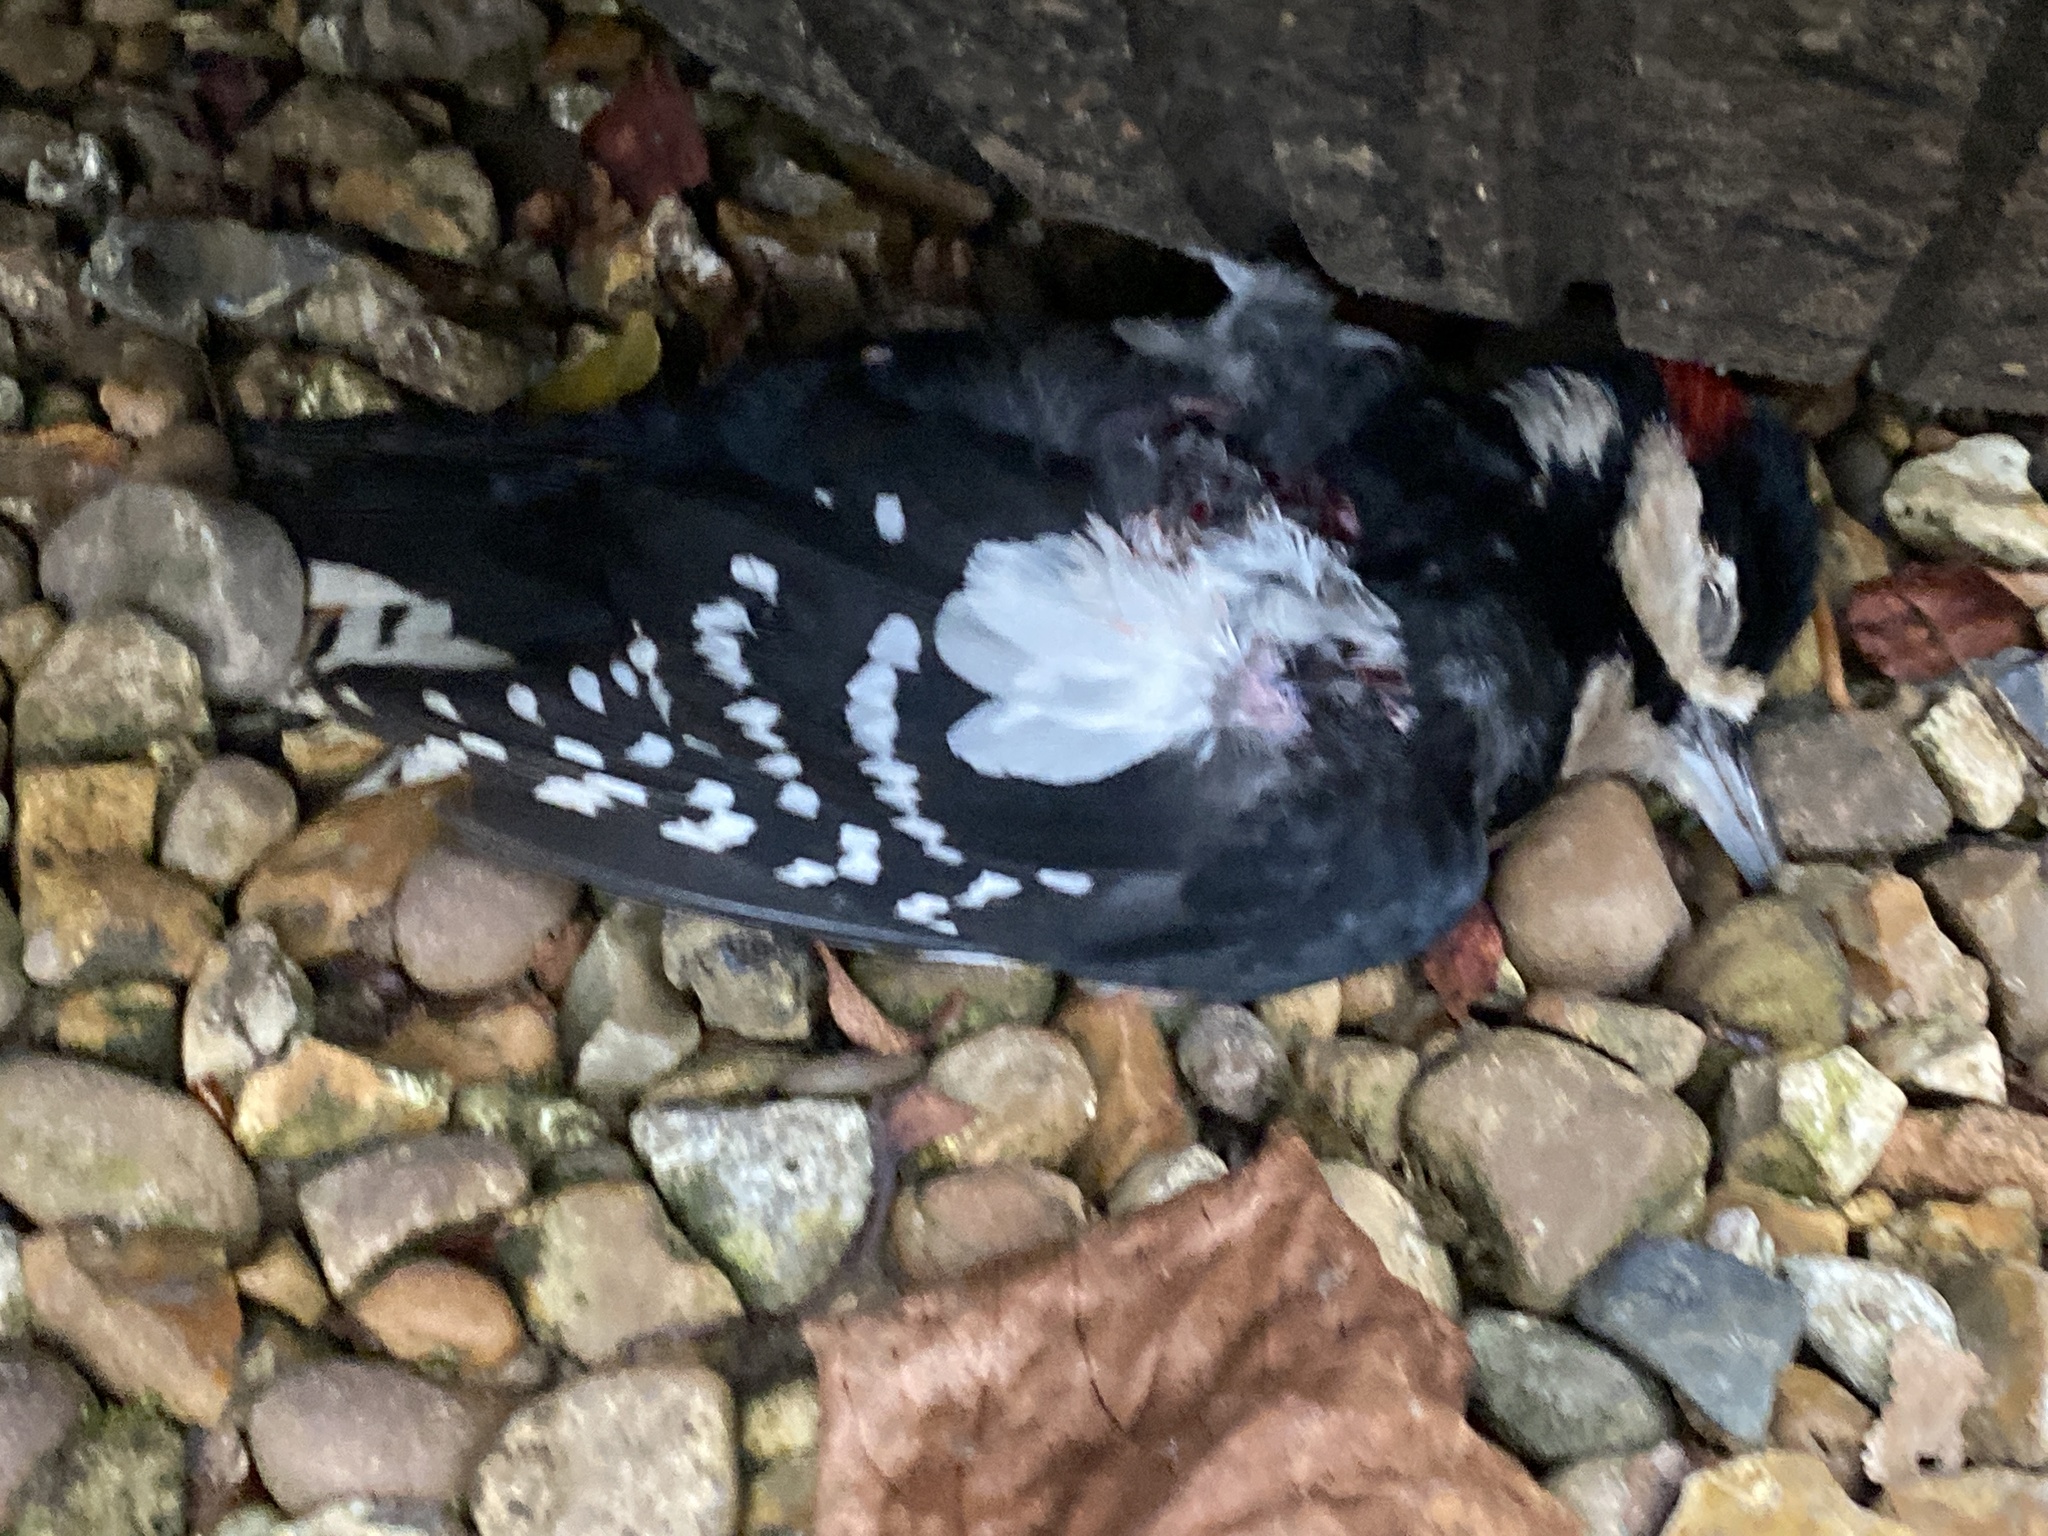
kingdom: Animalia
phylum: Chordata
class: Aves
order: Piciformes
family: Picidae
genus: Dendrocopos
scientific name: Dendrocopos major
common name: Great spotted woodpecker
